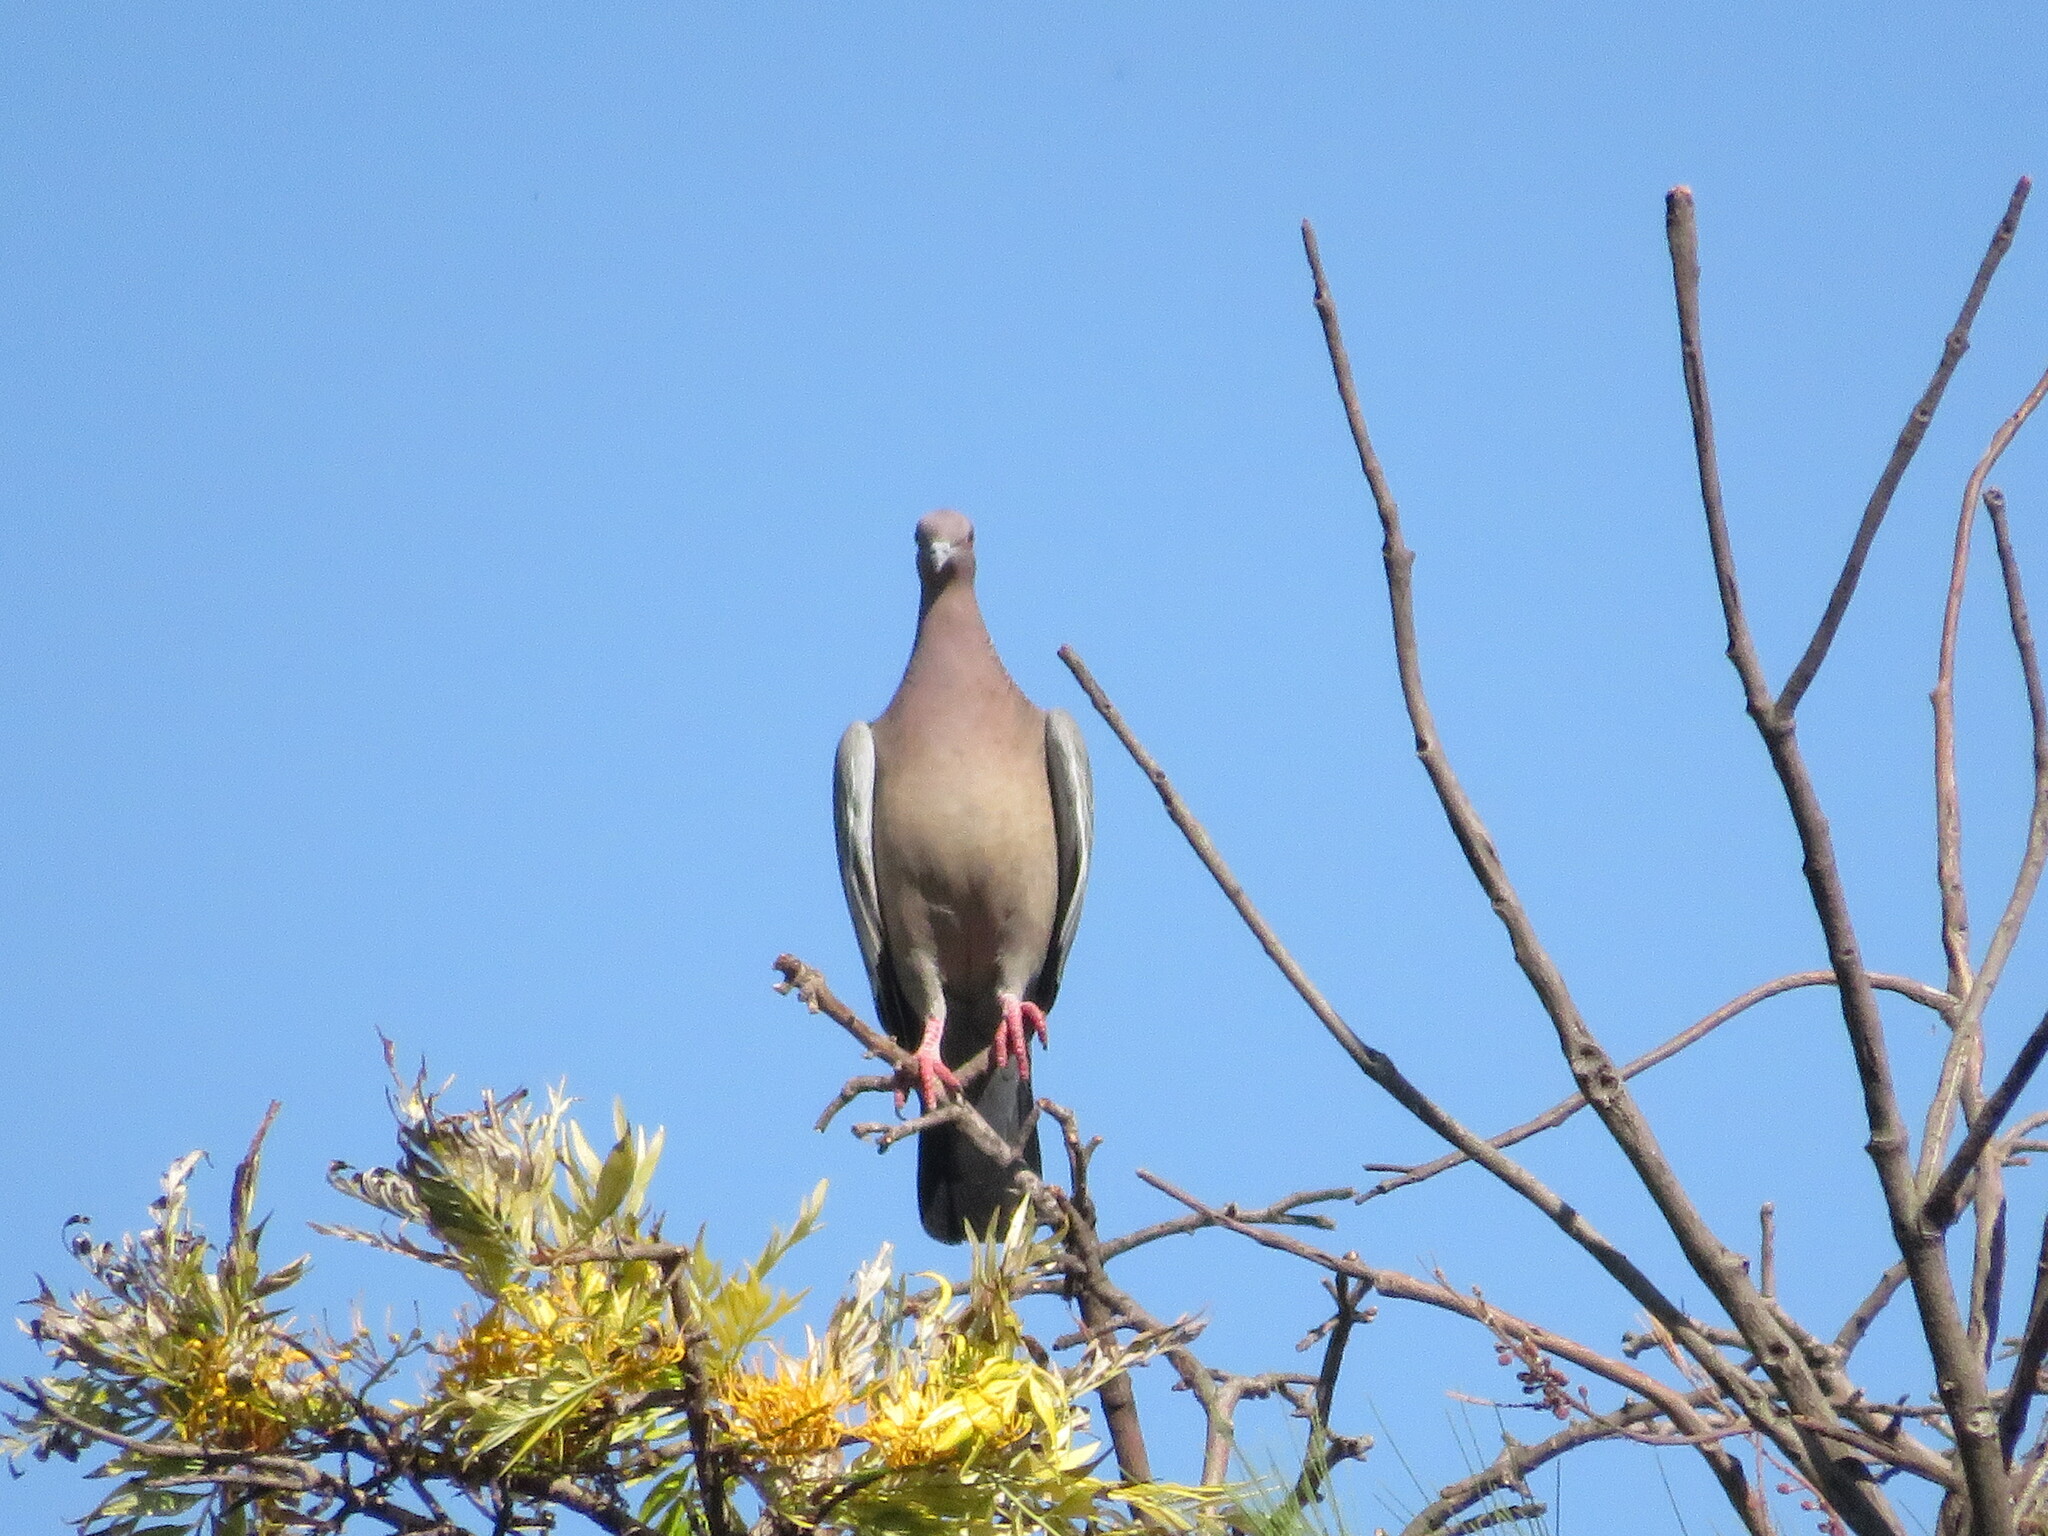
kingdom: Animalia
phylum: Chordata
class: Aves
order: Columbiformes
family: Columbidae
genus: Patagioenas
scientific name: Patagioenas picazuro
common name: Picazuro pigeon
